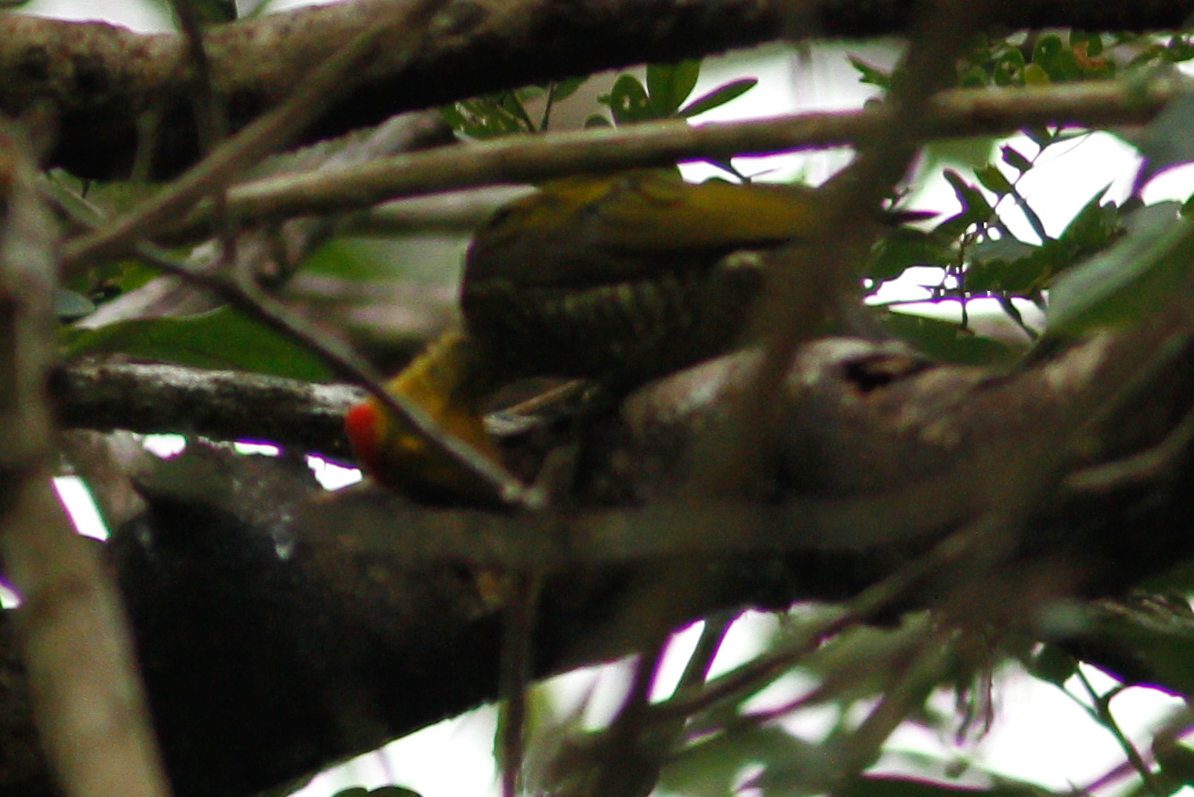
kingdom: Animalia
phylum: Chordata
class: Aves
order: Piciformes
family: Picidae
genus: Piculus
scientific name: Piculus flavigula
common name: Yellow-throated woodpecker
